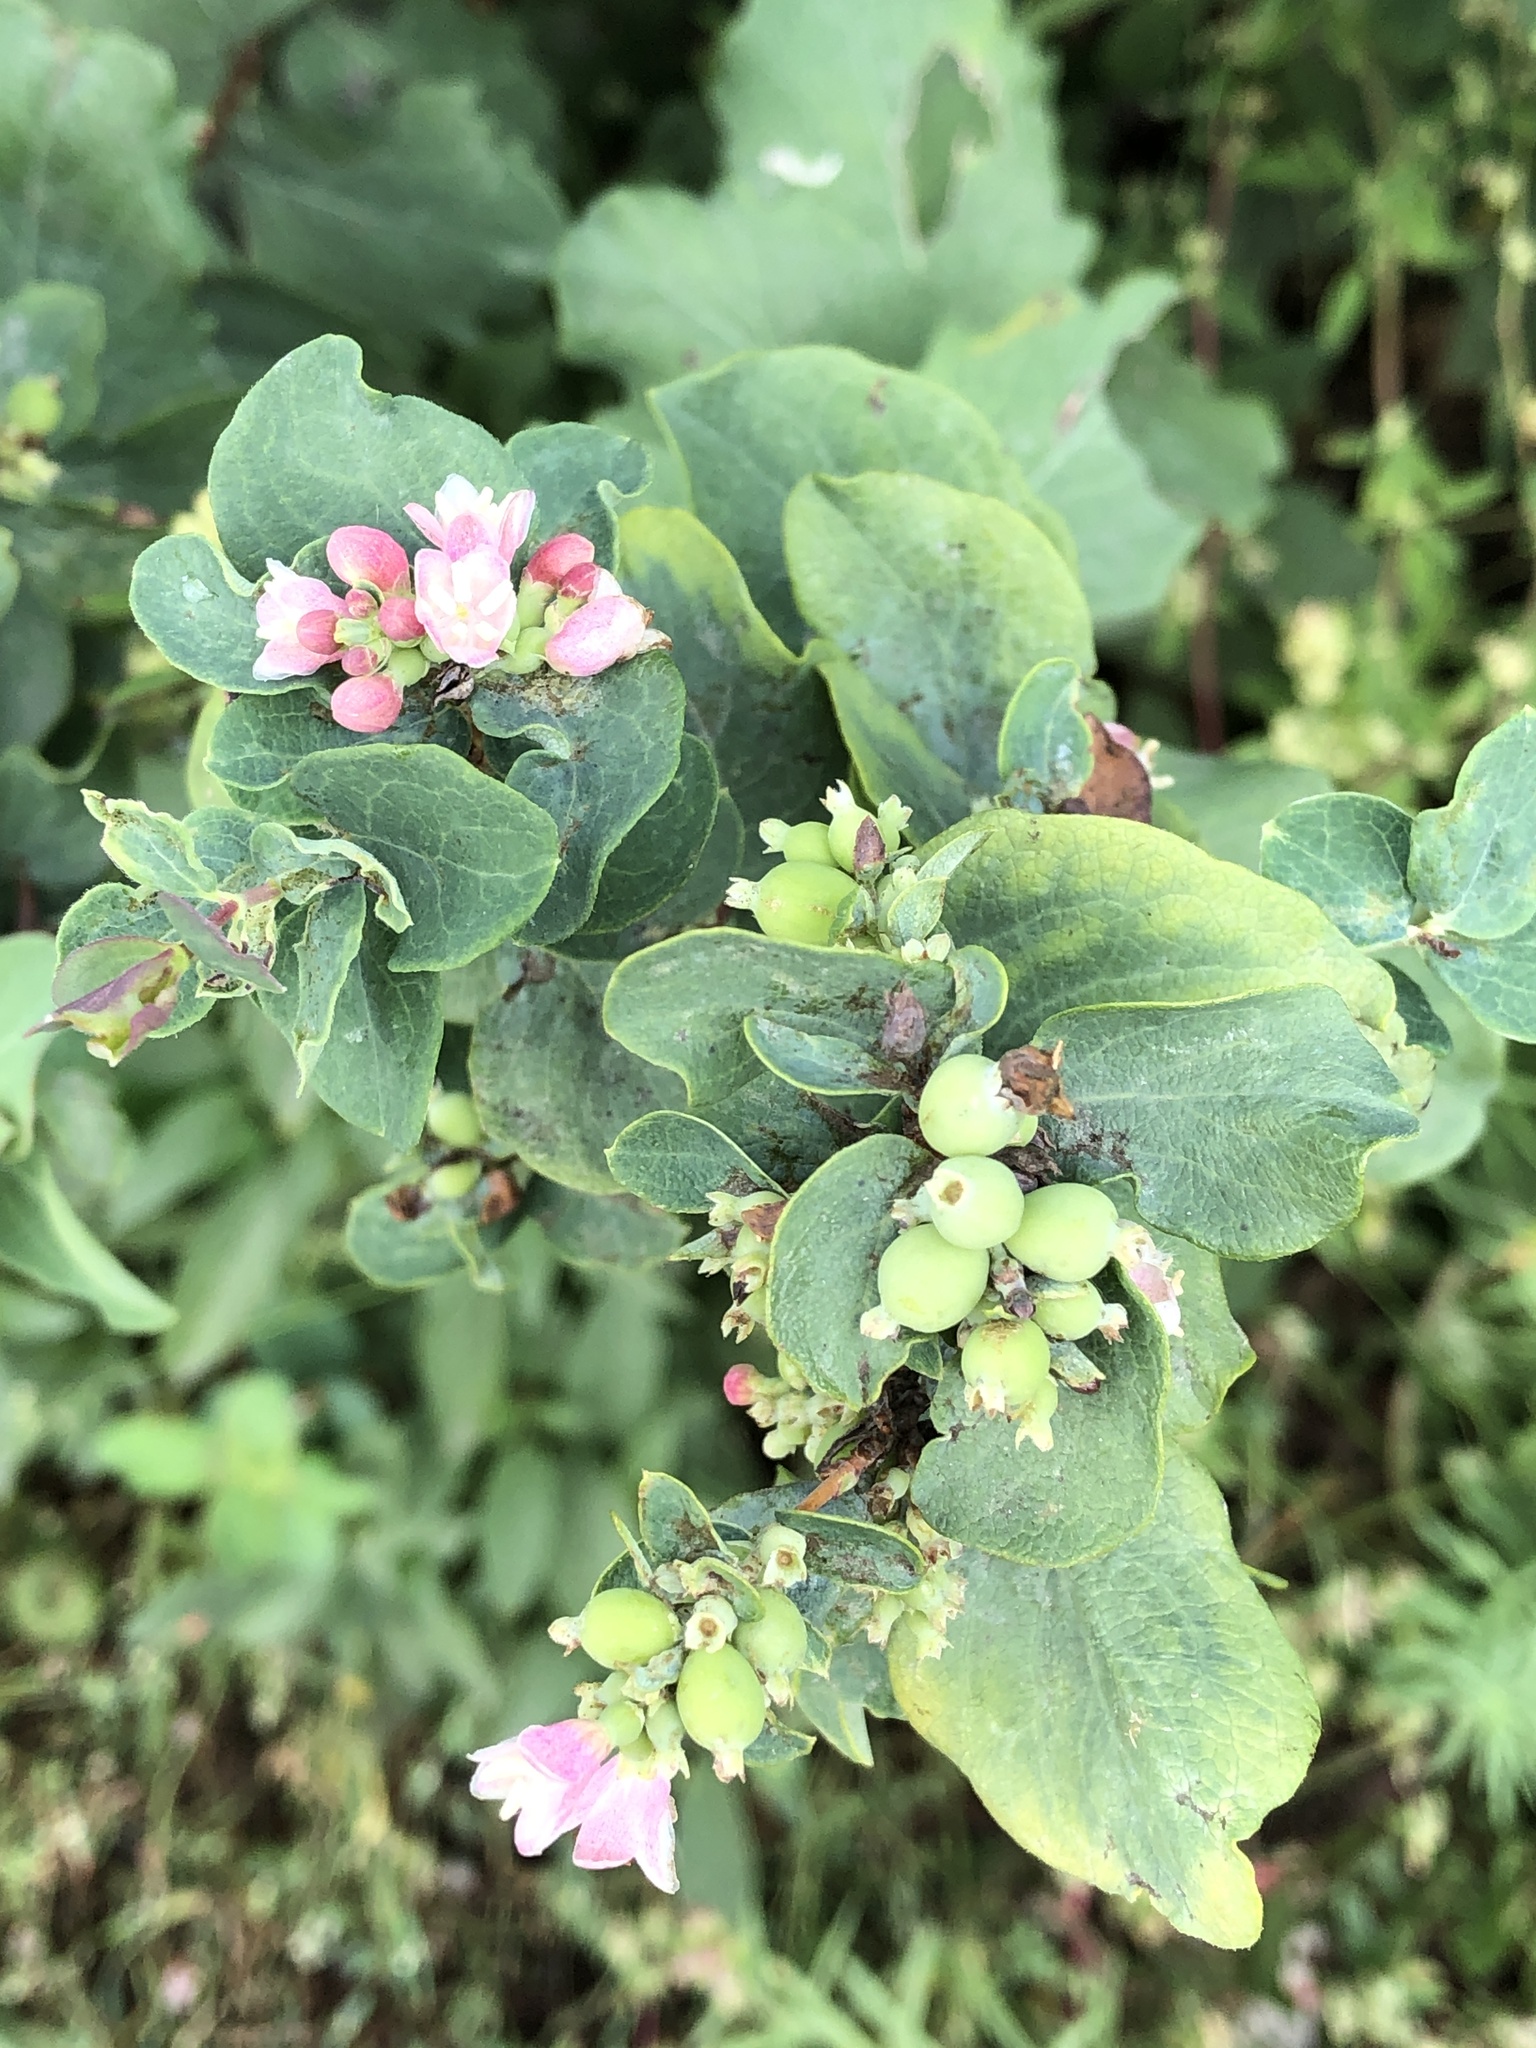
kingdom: Plantae
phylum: Tracheophyta
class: Magnoliopsida
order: Dipsacales
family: Caprifoliaceae
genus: Symphoricarpos
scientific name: Symphoricarpos occidentalis
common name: Wolfberry
